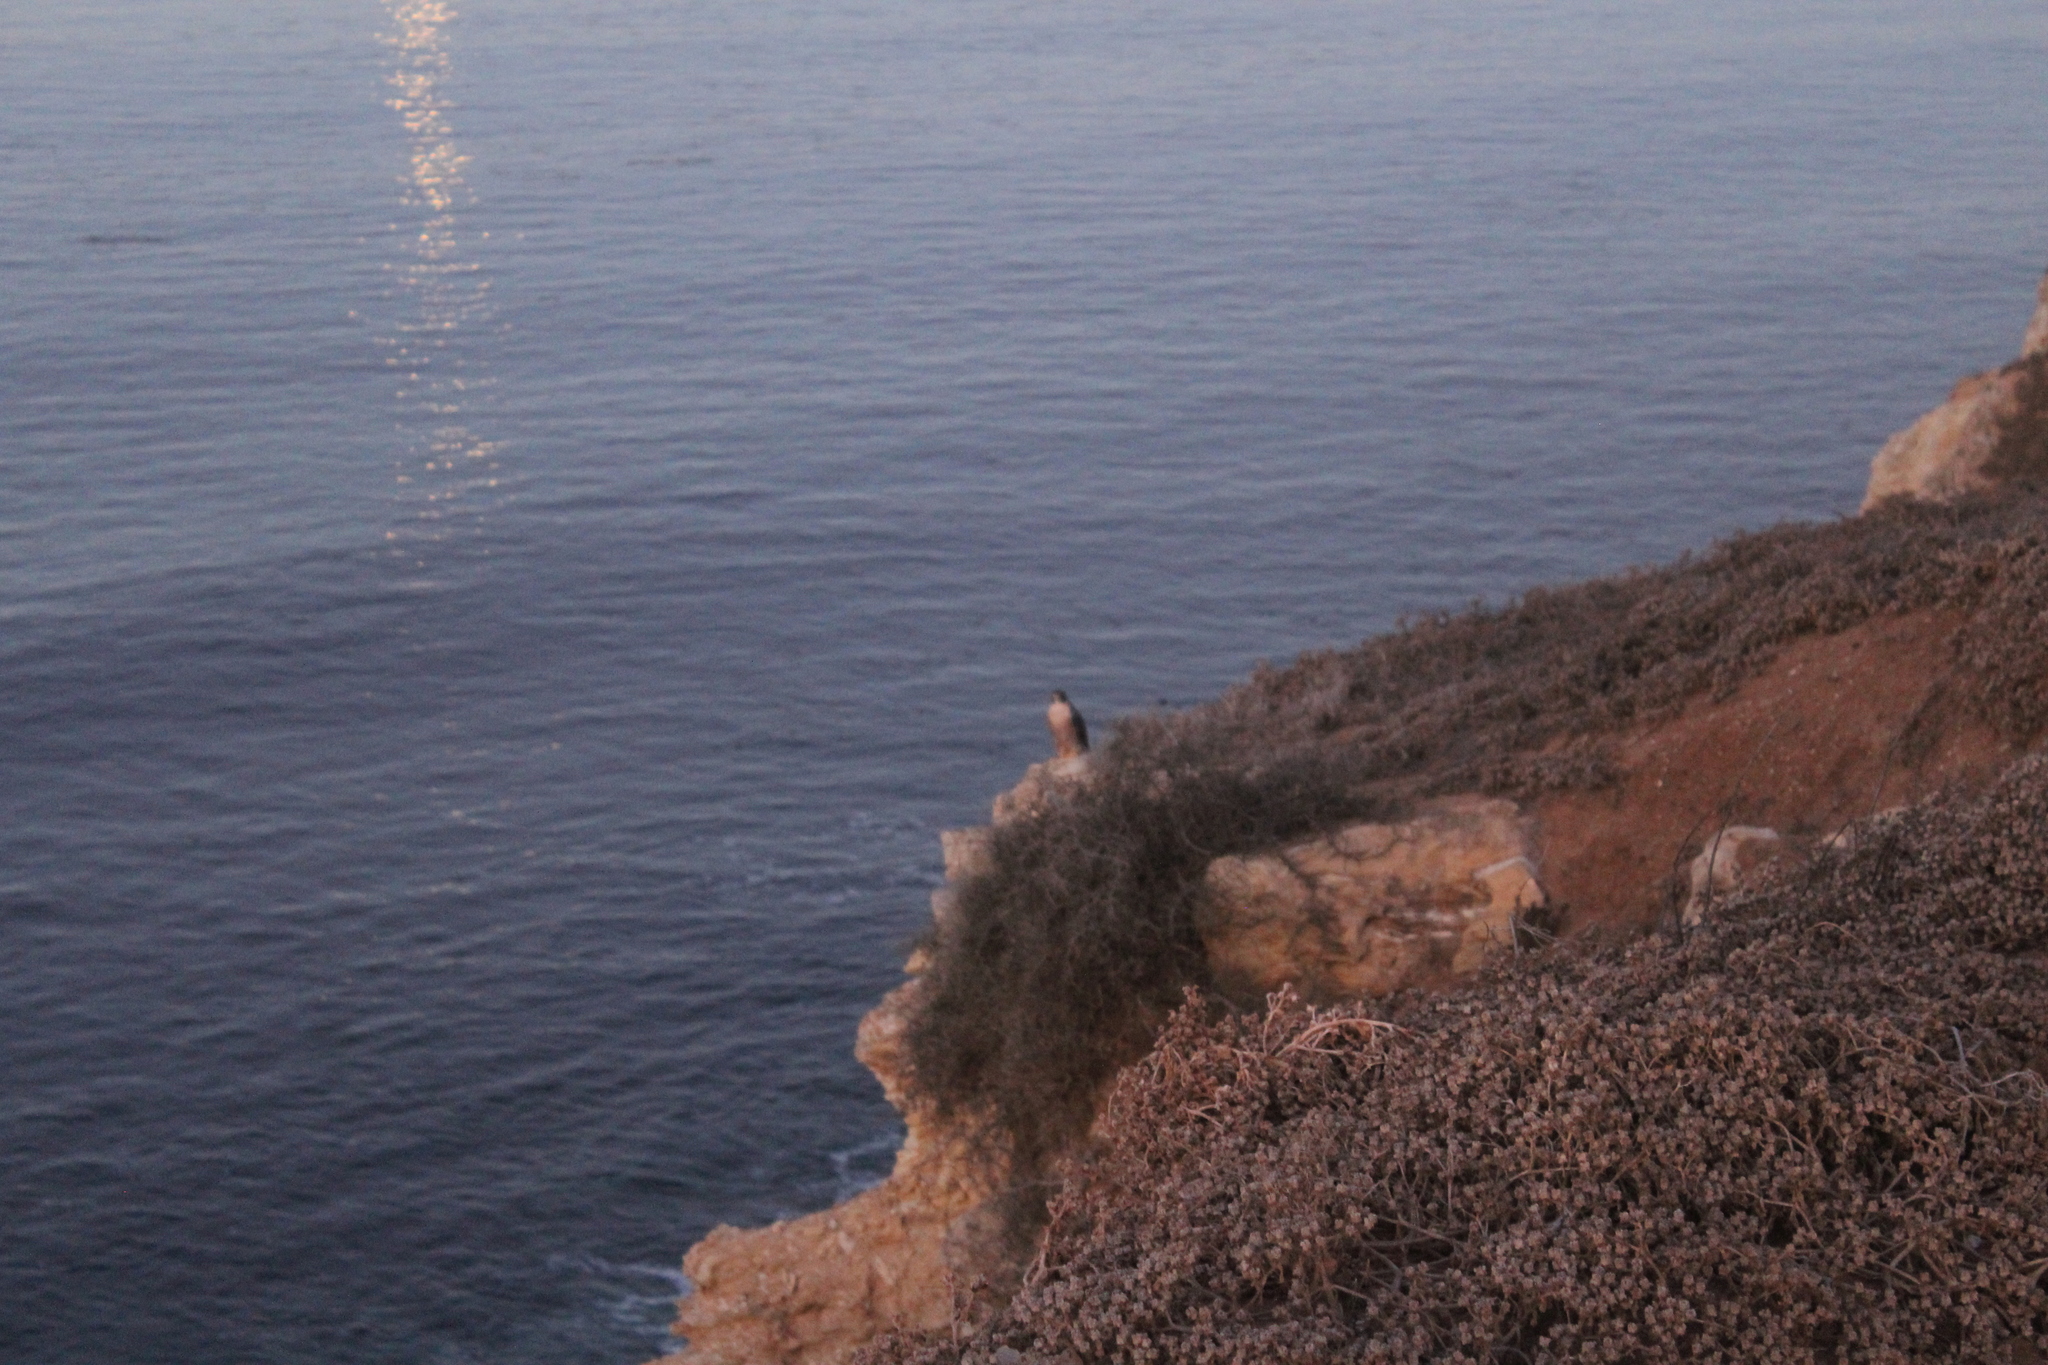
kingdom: Animalia
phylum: Chordata
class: Aves
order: Falconiformes
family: Falconidae
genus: Falco
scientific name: Falco peregrinus
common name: Peregrine falcon
